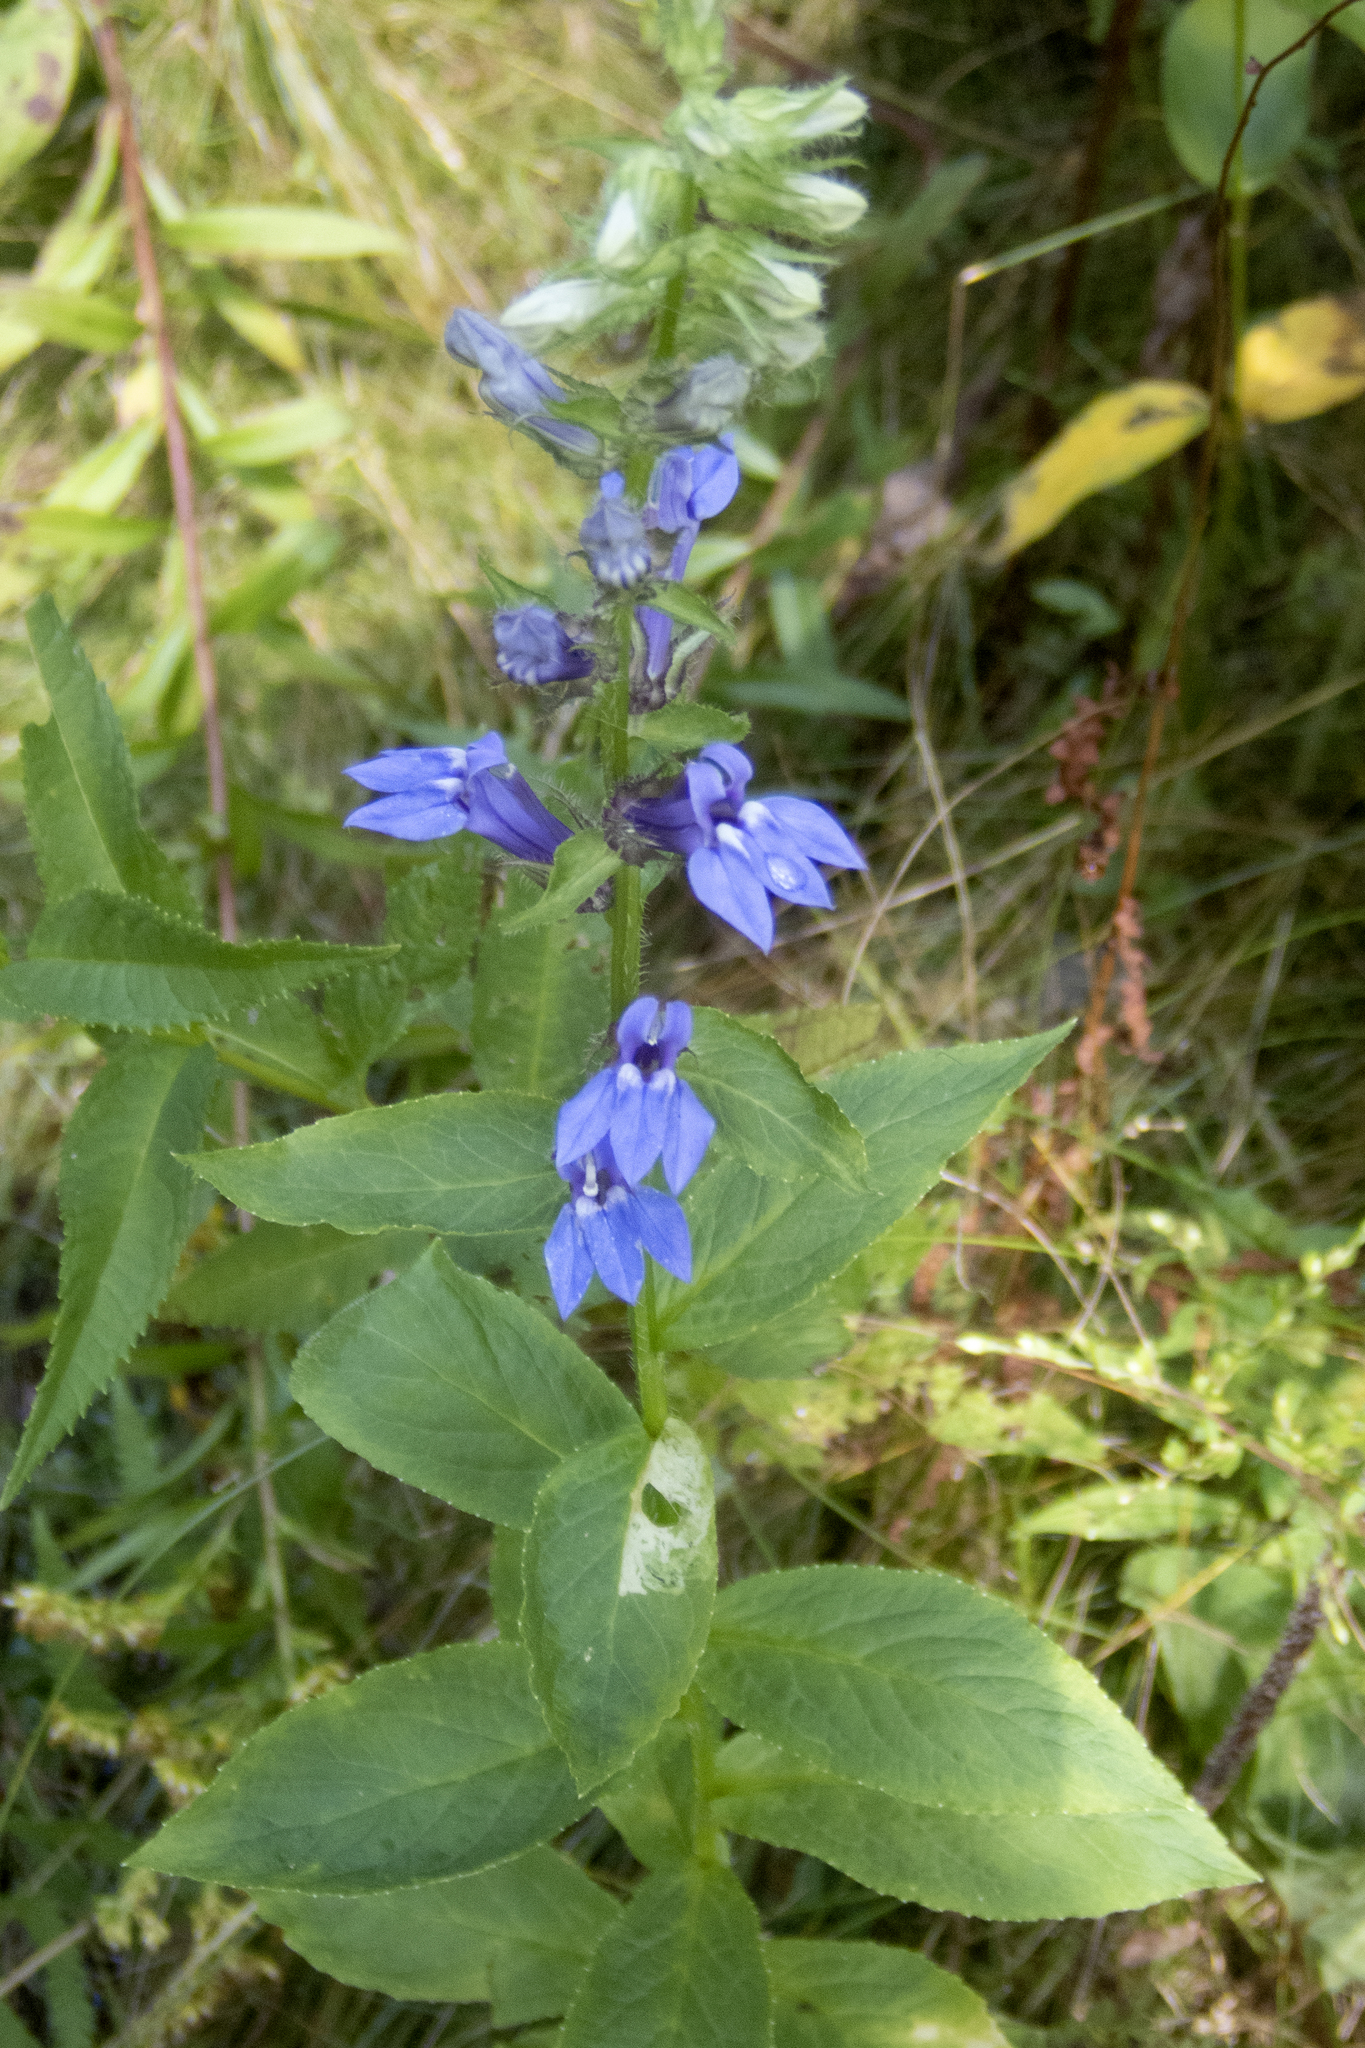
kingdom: Plantae
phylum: Tracheophyta
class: Magnoliopsida
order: Asterales
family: Campanulaceae
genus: Lobelia
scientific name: Lobelia siphilitica
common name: Great lobelia
